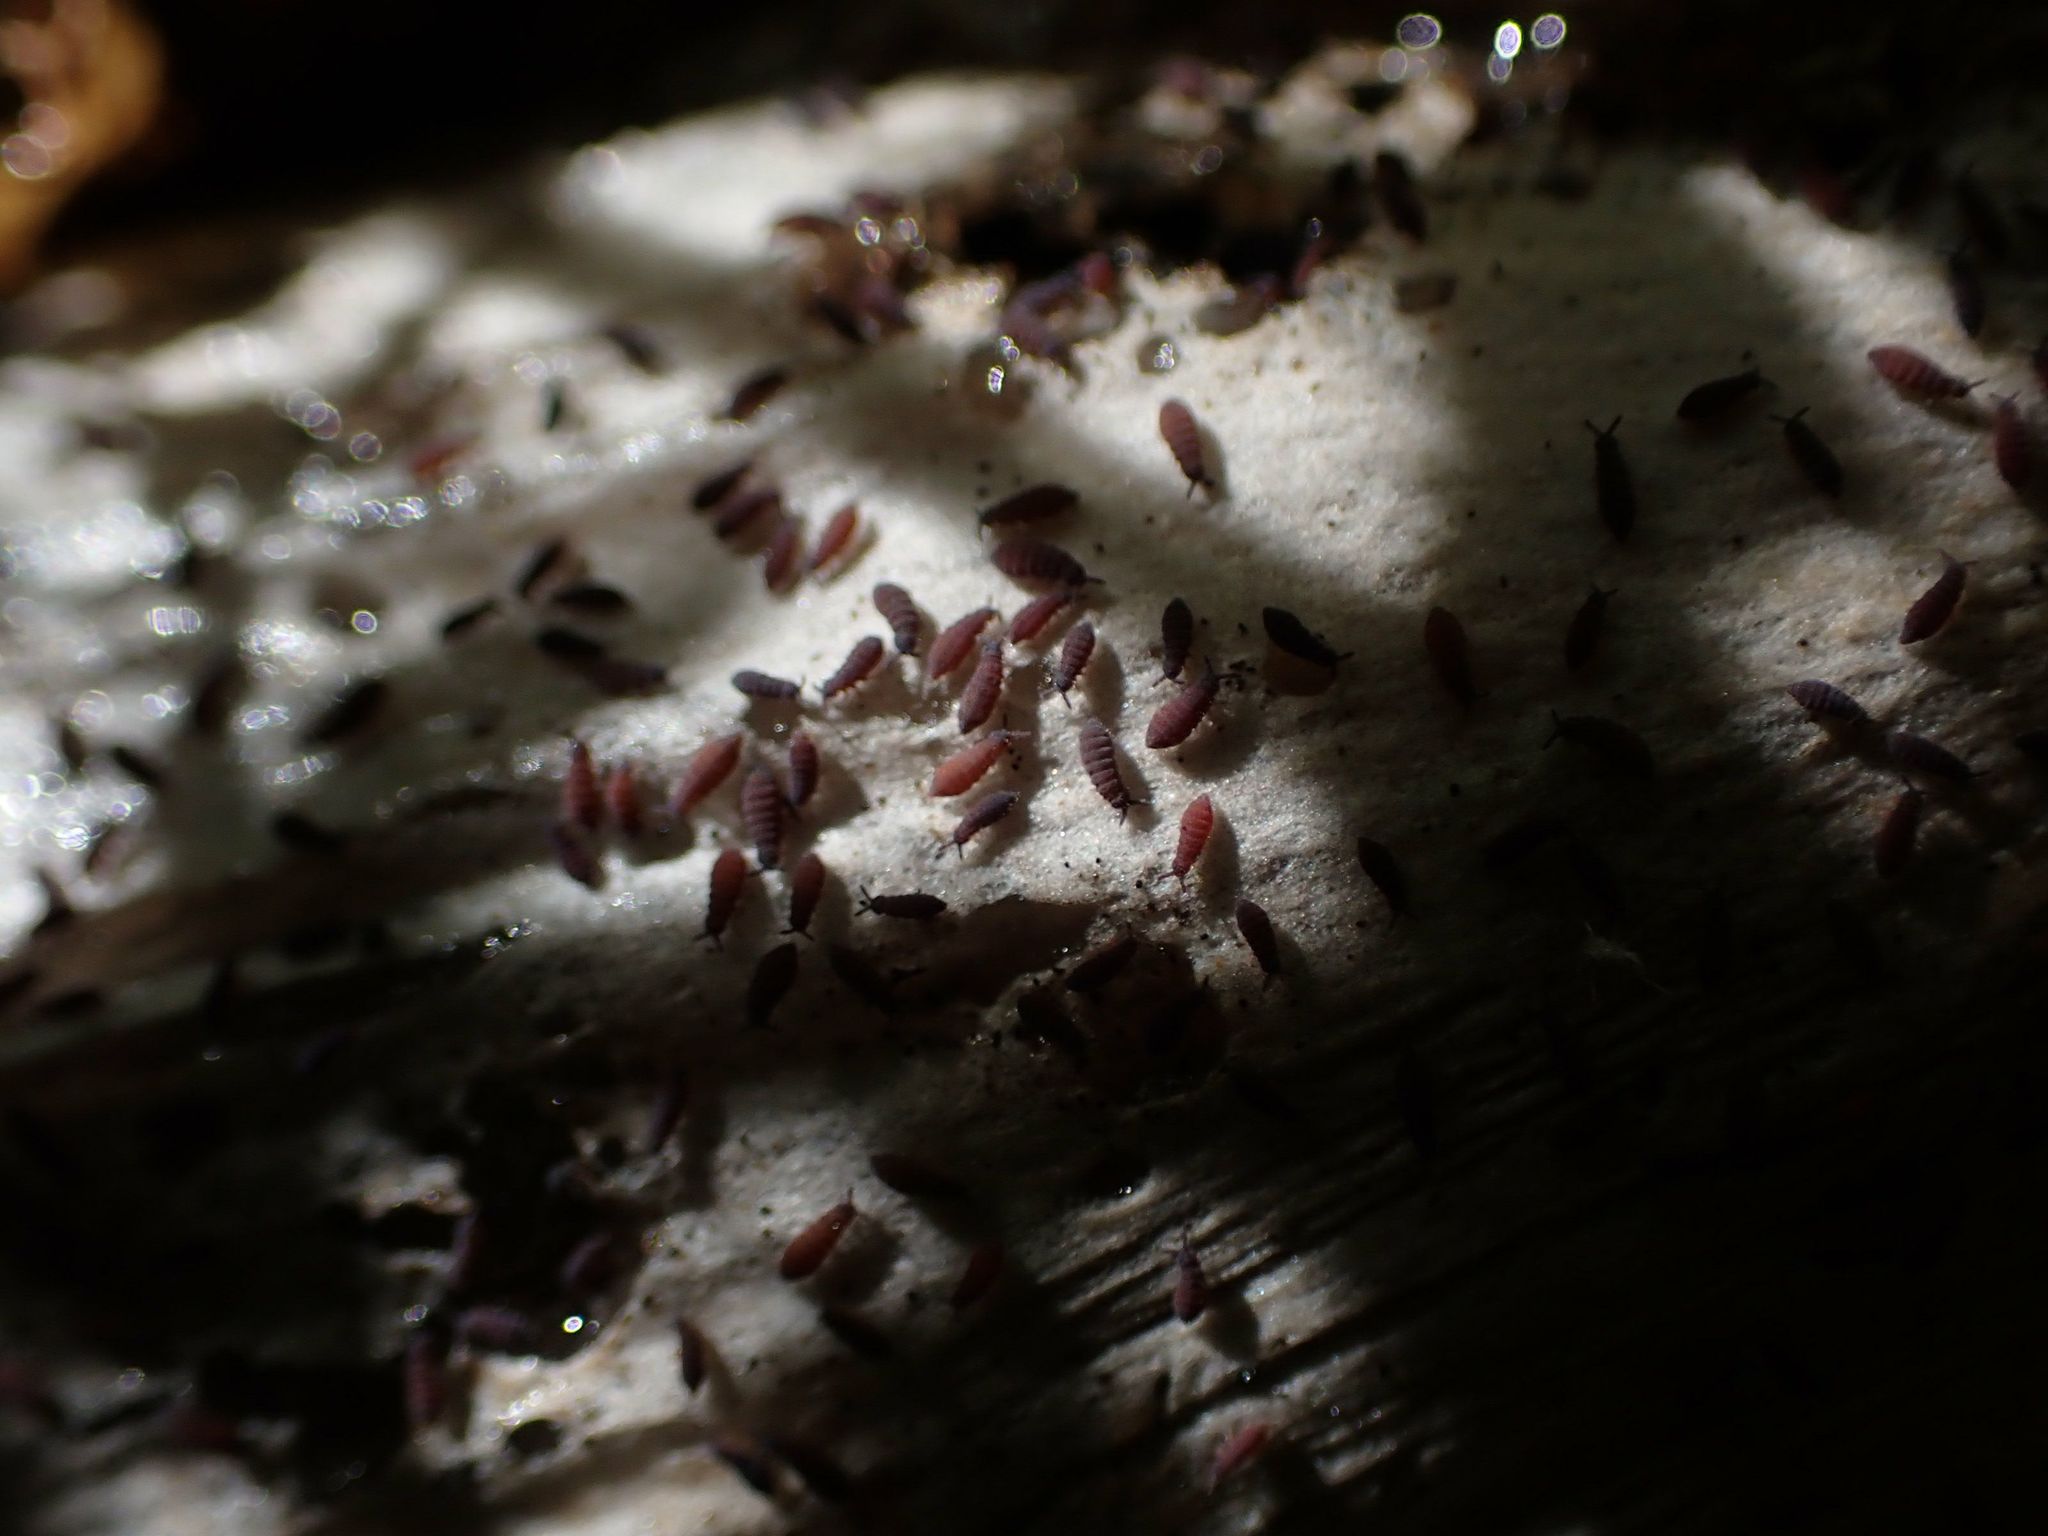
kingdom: Fungi
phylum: Basidiomycota
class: Agaricomycetes
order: Agaricales
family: Agaricaceae
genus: Coprinus
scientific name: Coprinus comatus
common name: Lawyer's wig
